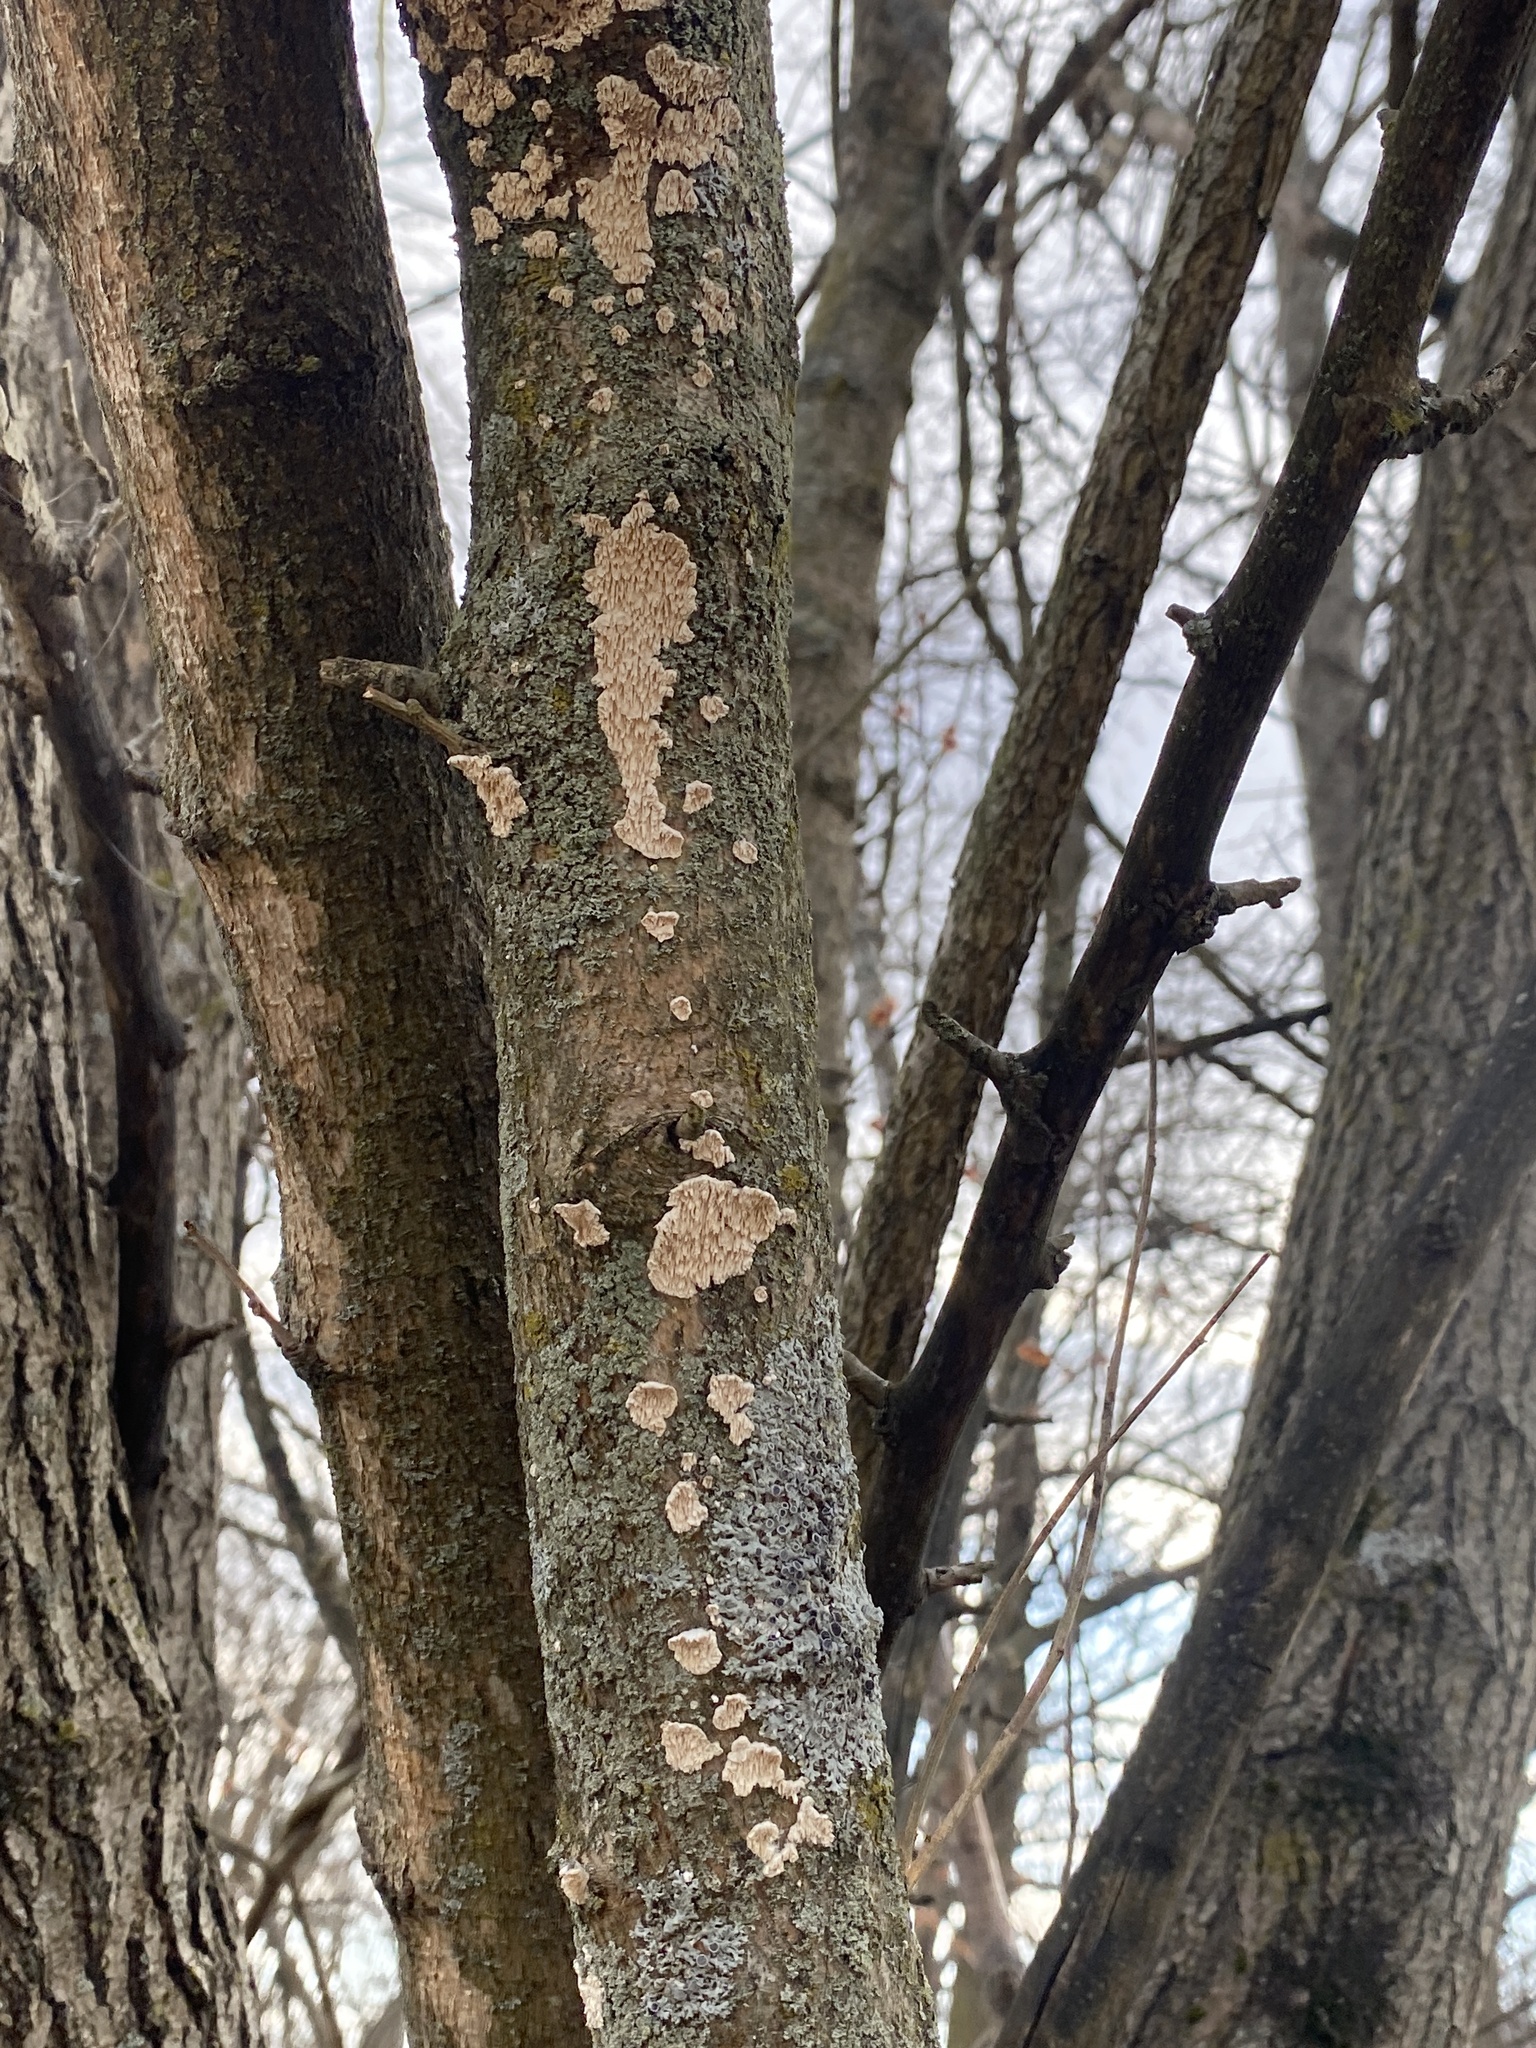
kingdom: Fungi
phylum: Basidiomycota
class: Agaricomycetes
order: Polyporales
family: Irpicaceae
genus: Irpex
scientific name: Irpex lacteus
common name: Milk-white toothed polypore
